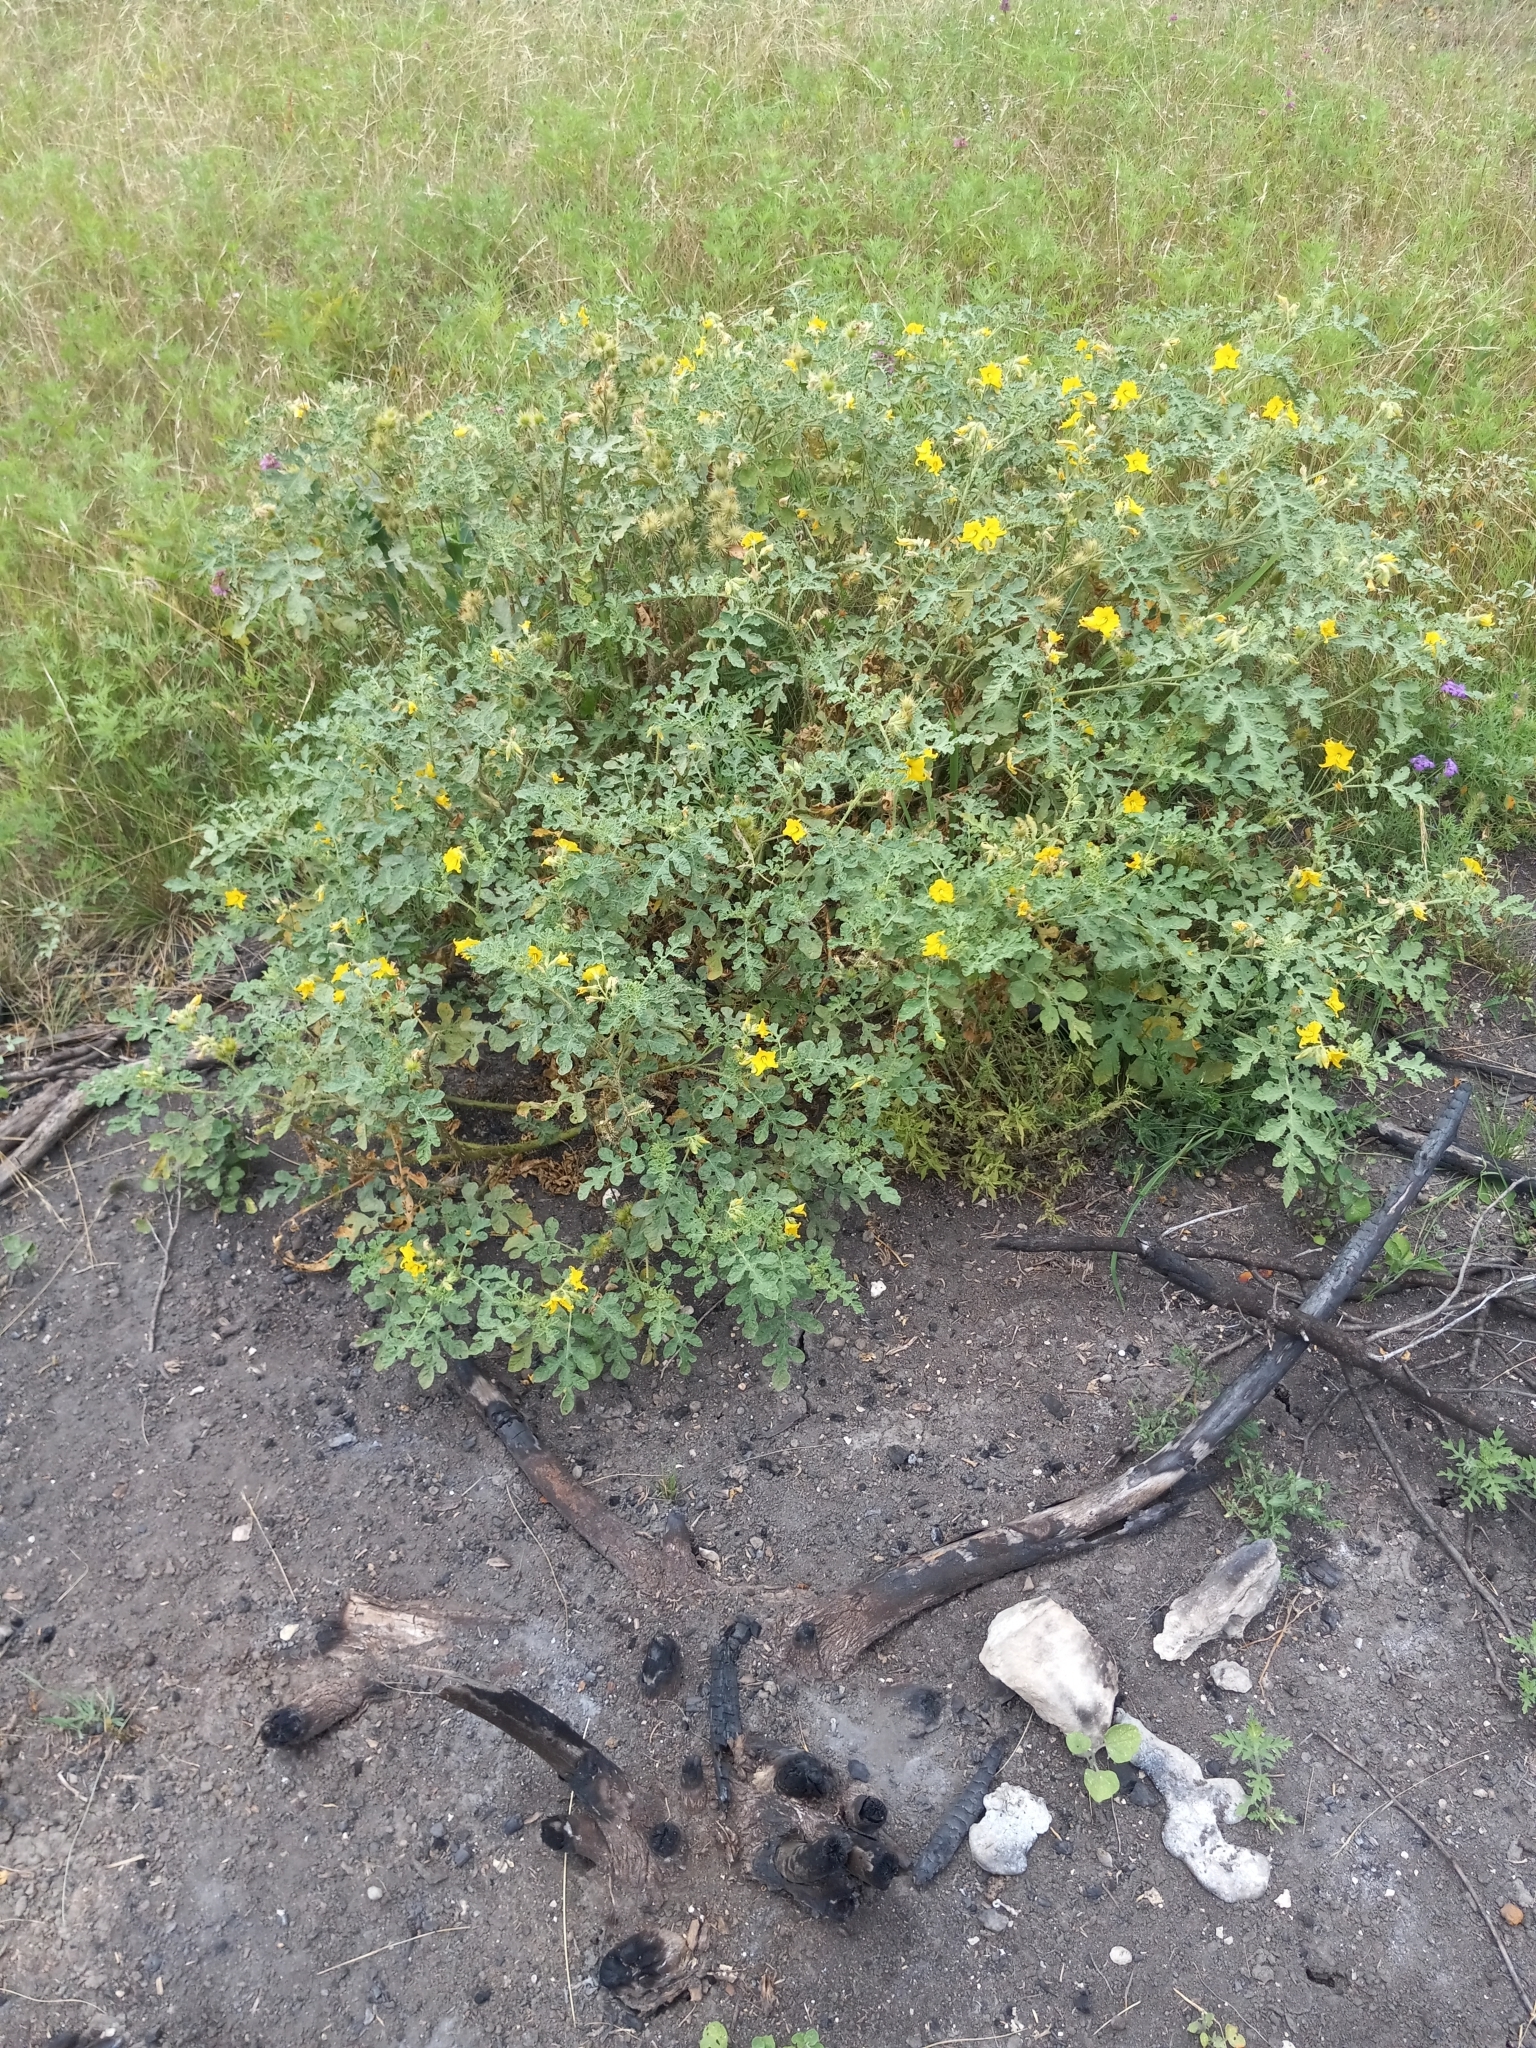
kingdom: Plantae
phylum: Tracheophyta
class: Magnoliopsida
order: Solanales
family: Solanaceae
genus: Solanum
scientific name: Solanum angustifolium
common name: Buffalobur nightshade
